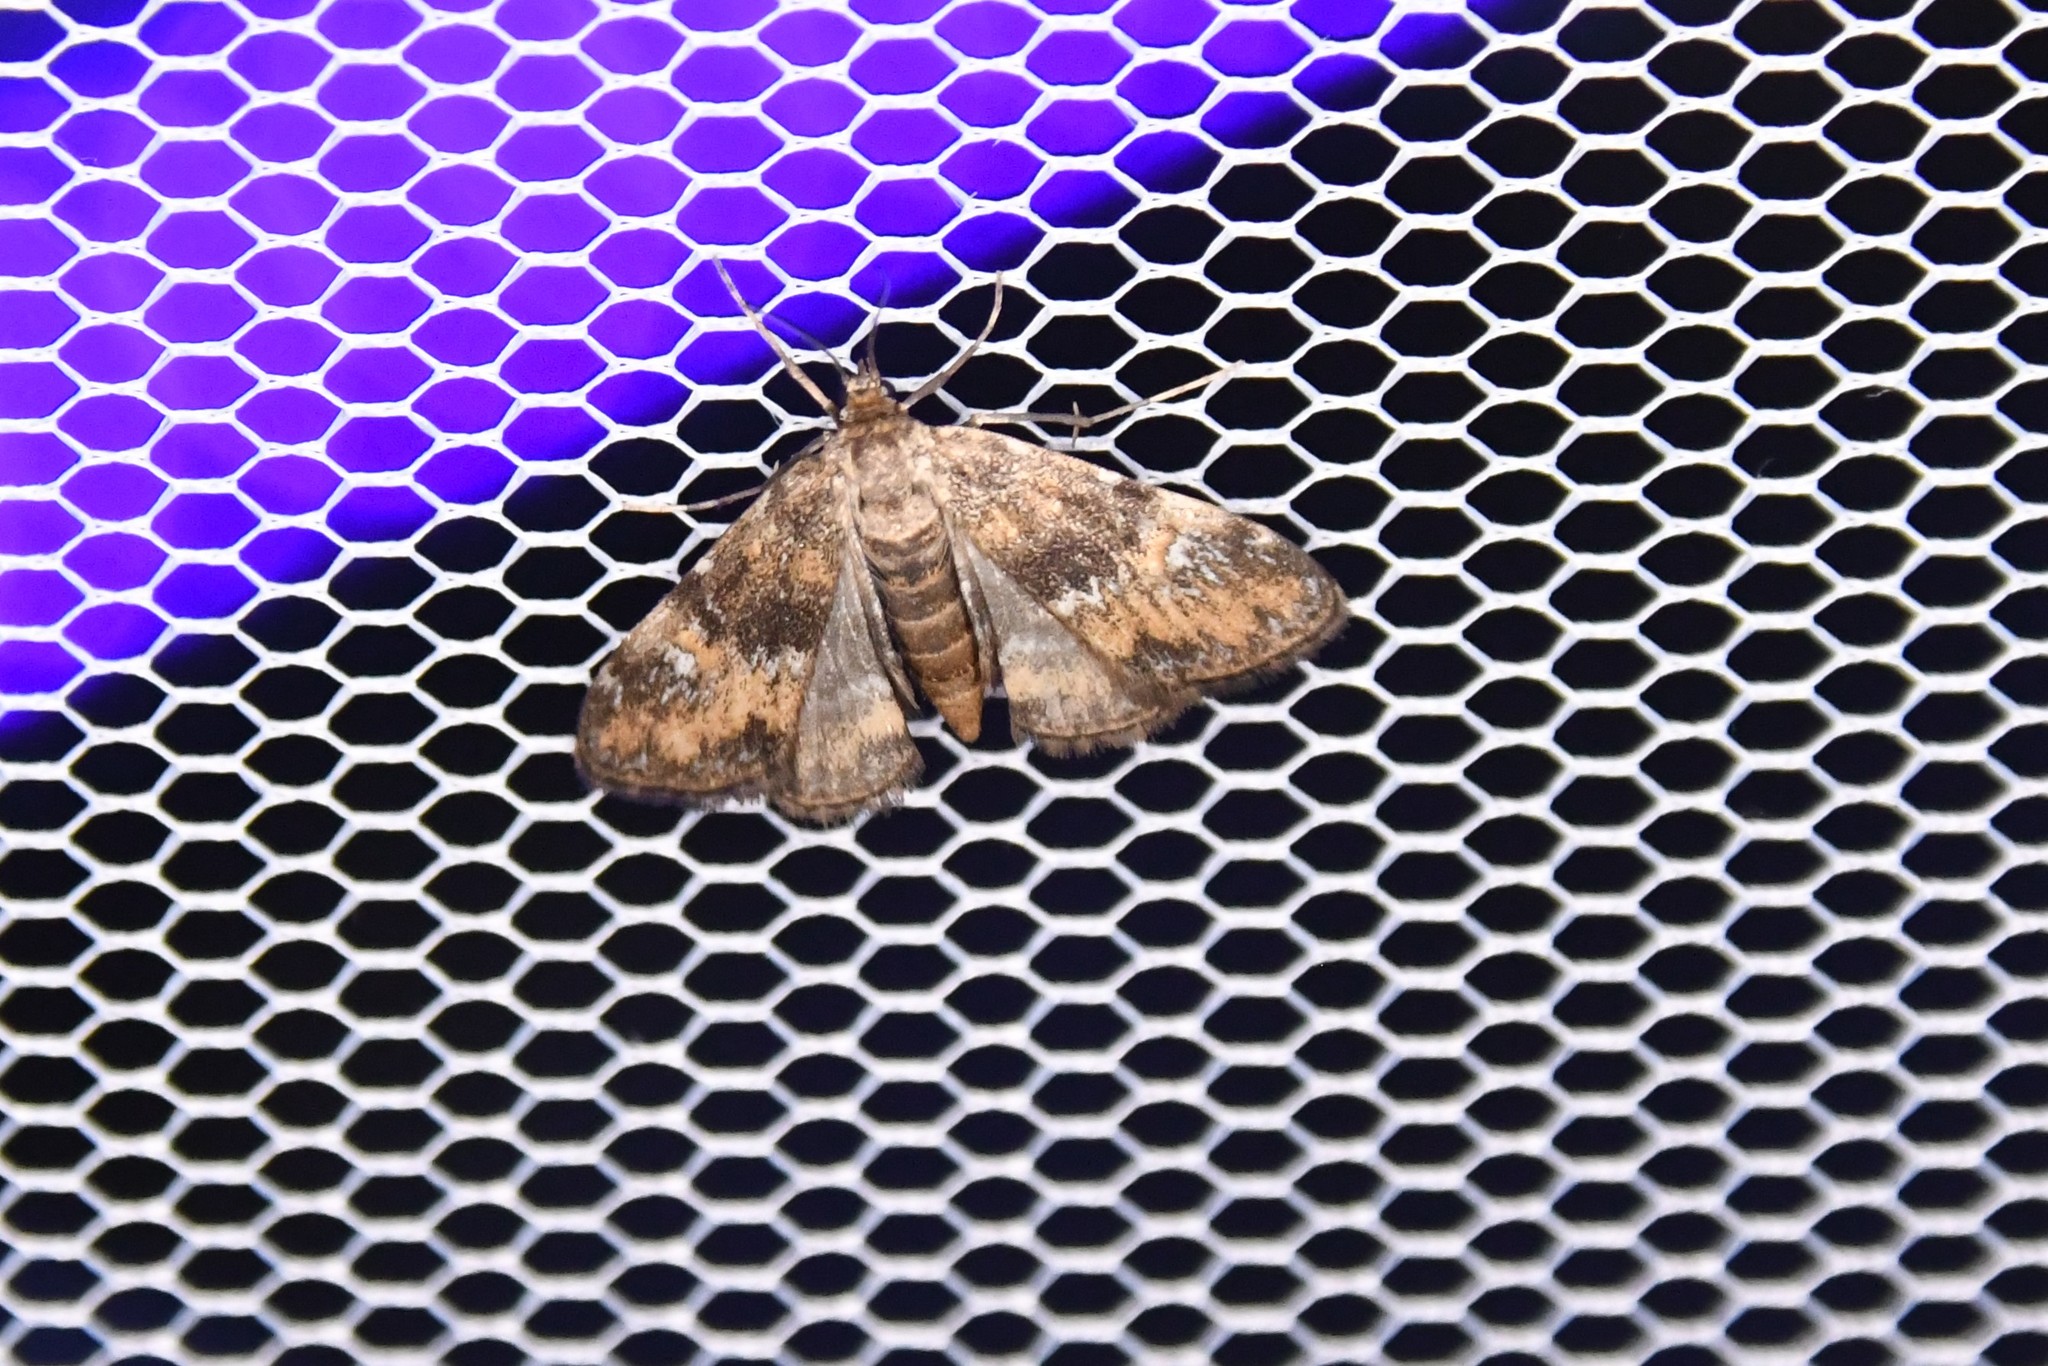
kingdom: Animalia
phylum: Arthropoda
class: Insecta
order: Lepidoptera
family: Crambidae
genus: Elophila
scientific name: Elophila obliteralis
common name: Waterlily leafcutter moth
